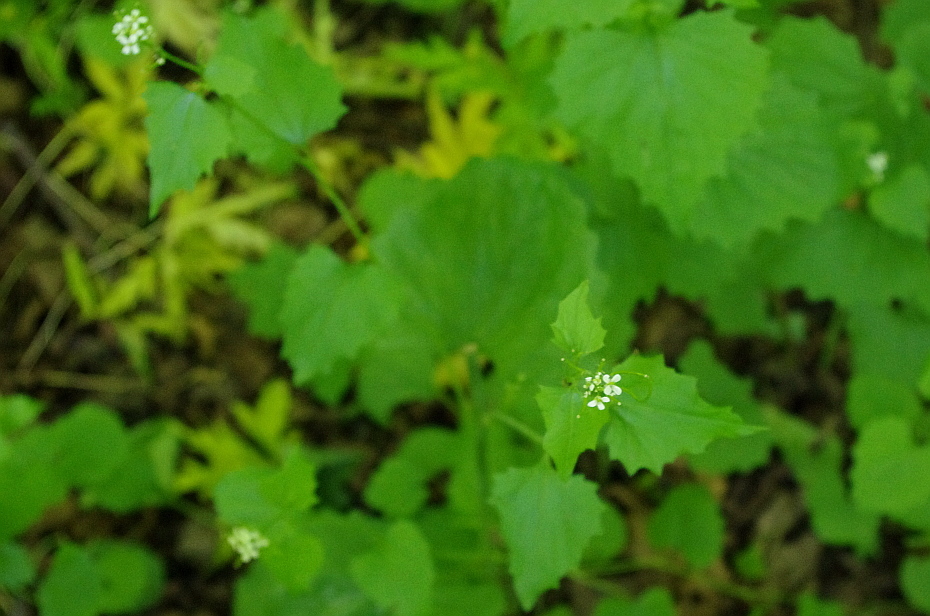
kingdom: Plantae
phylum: Tracheophyta
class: Magnoliopsida
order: Brassicales
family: Brassicaceae
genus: Alliaria
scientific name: Alliaria petiolata
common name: Garlic mustard
